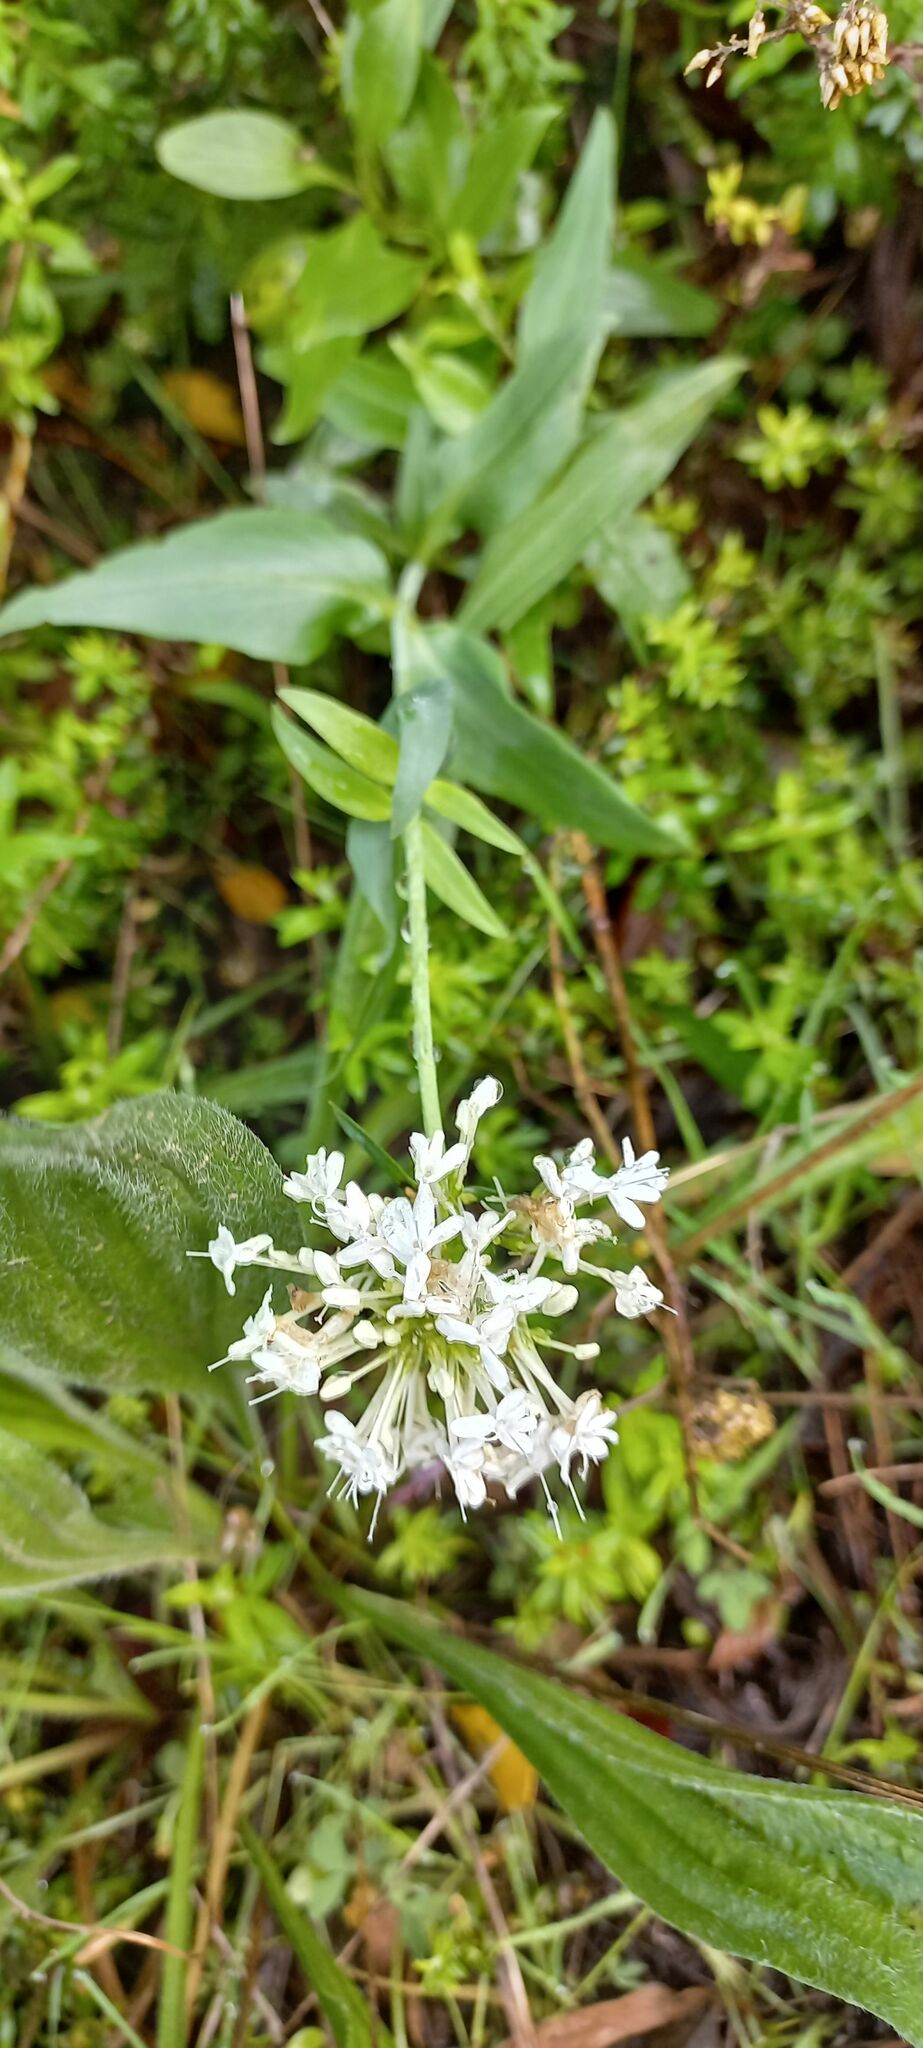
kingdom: Plantae
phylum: Tracheophyta
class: Magnoliopsida
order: Dipsacales
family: Caprifoliaceae
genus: Centranthus
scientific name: Centranthus ruber
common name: Red valerian
